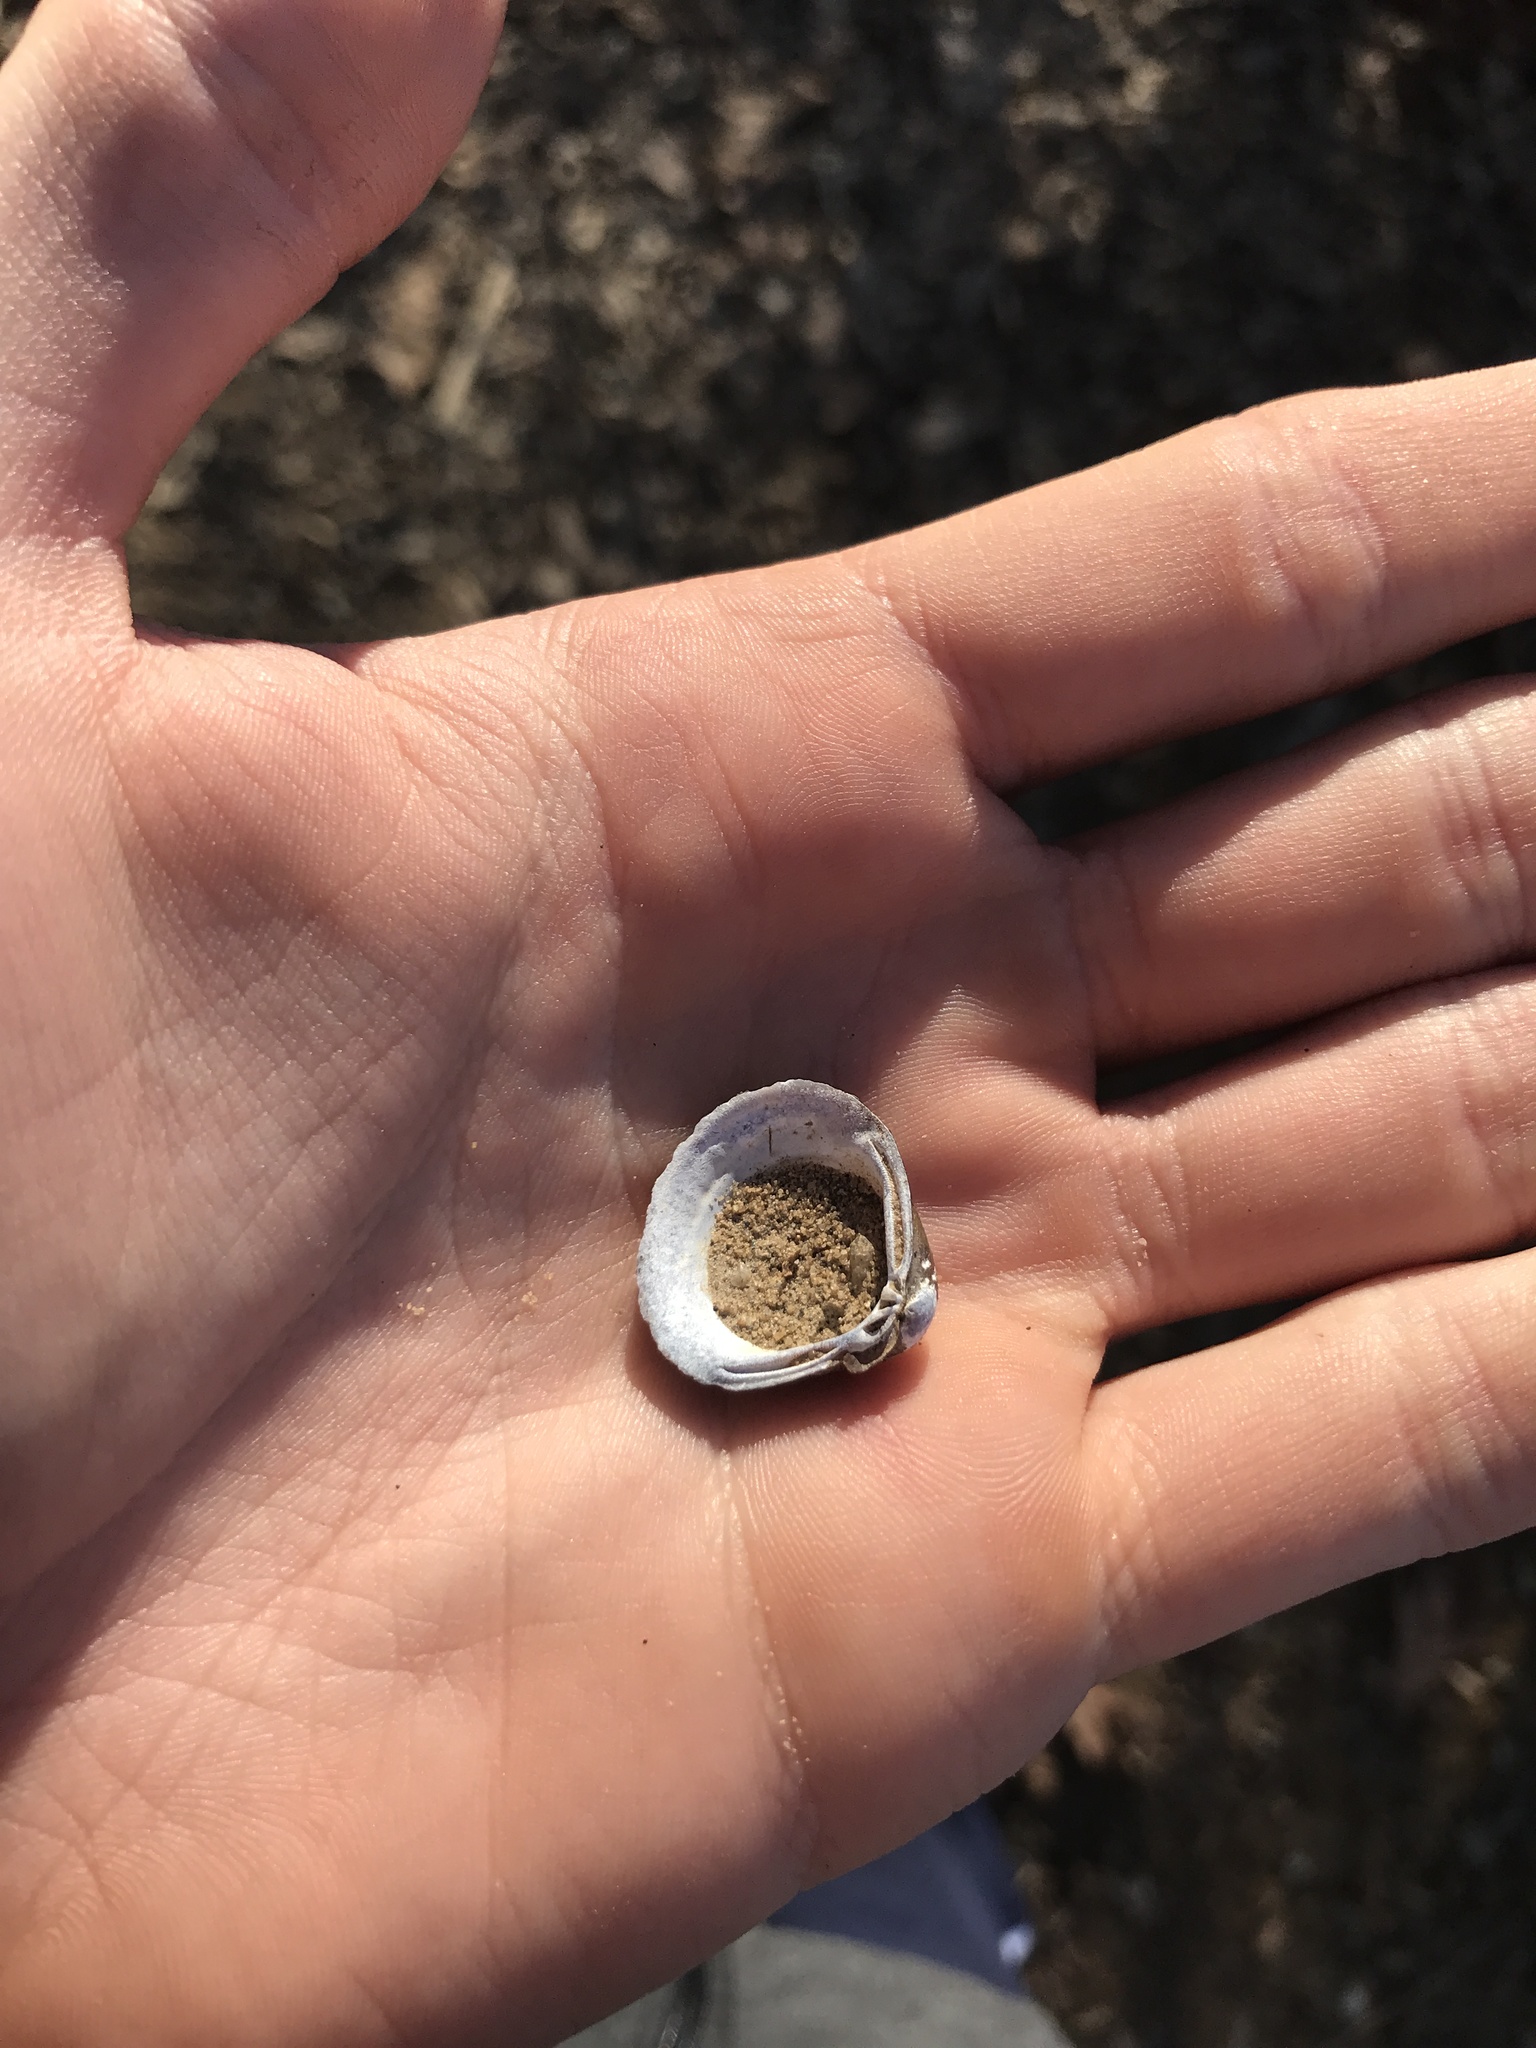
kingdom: Animalia
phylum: Mollusca
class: Bivalvia
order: Venerida
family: Cyrenidae
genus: Corbicula
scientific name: Corbicula fluminea
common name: Asian clam
